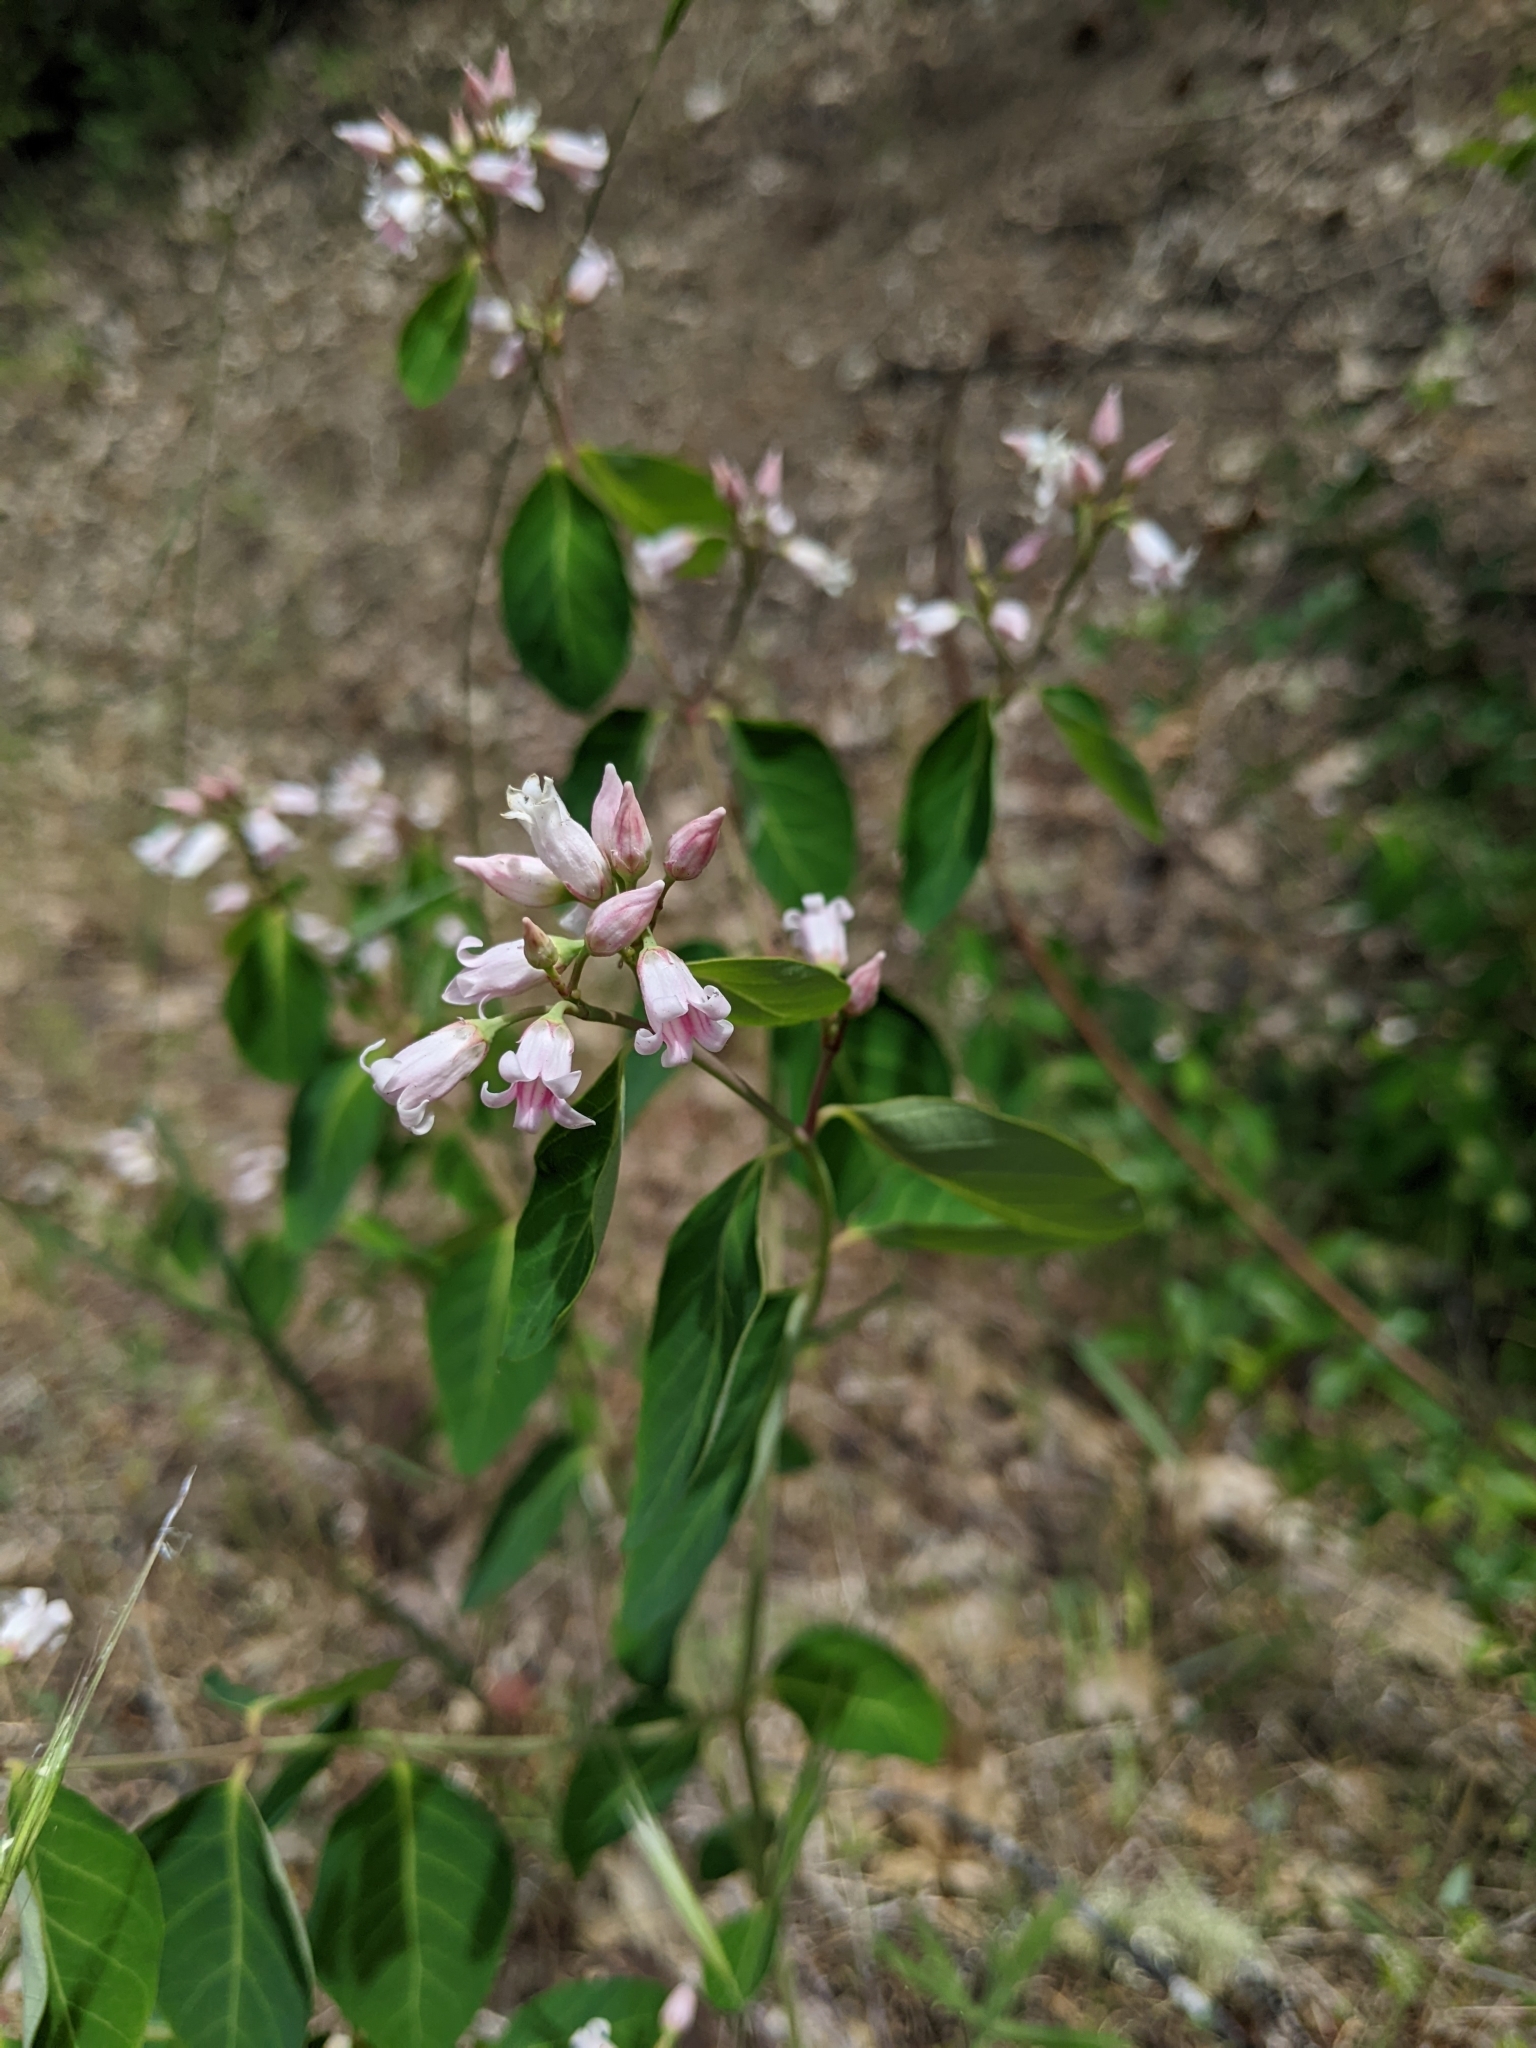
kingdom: Plantae
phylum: Tracheophyta
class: Magnoliopsida
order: Gentianales
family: Apocynaceae
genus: Apocynum
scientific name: Apocynum androsaemifolium
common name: Spreading dogbane
